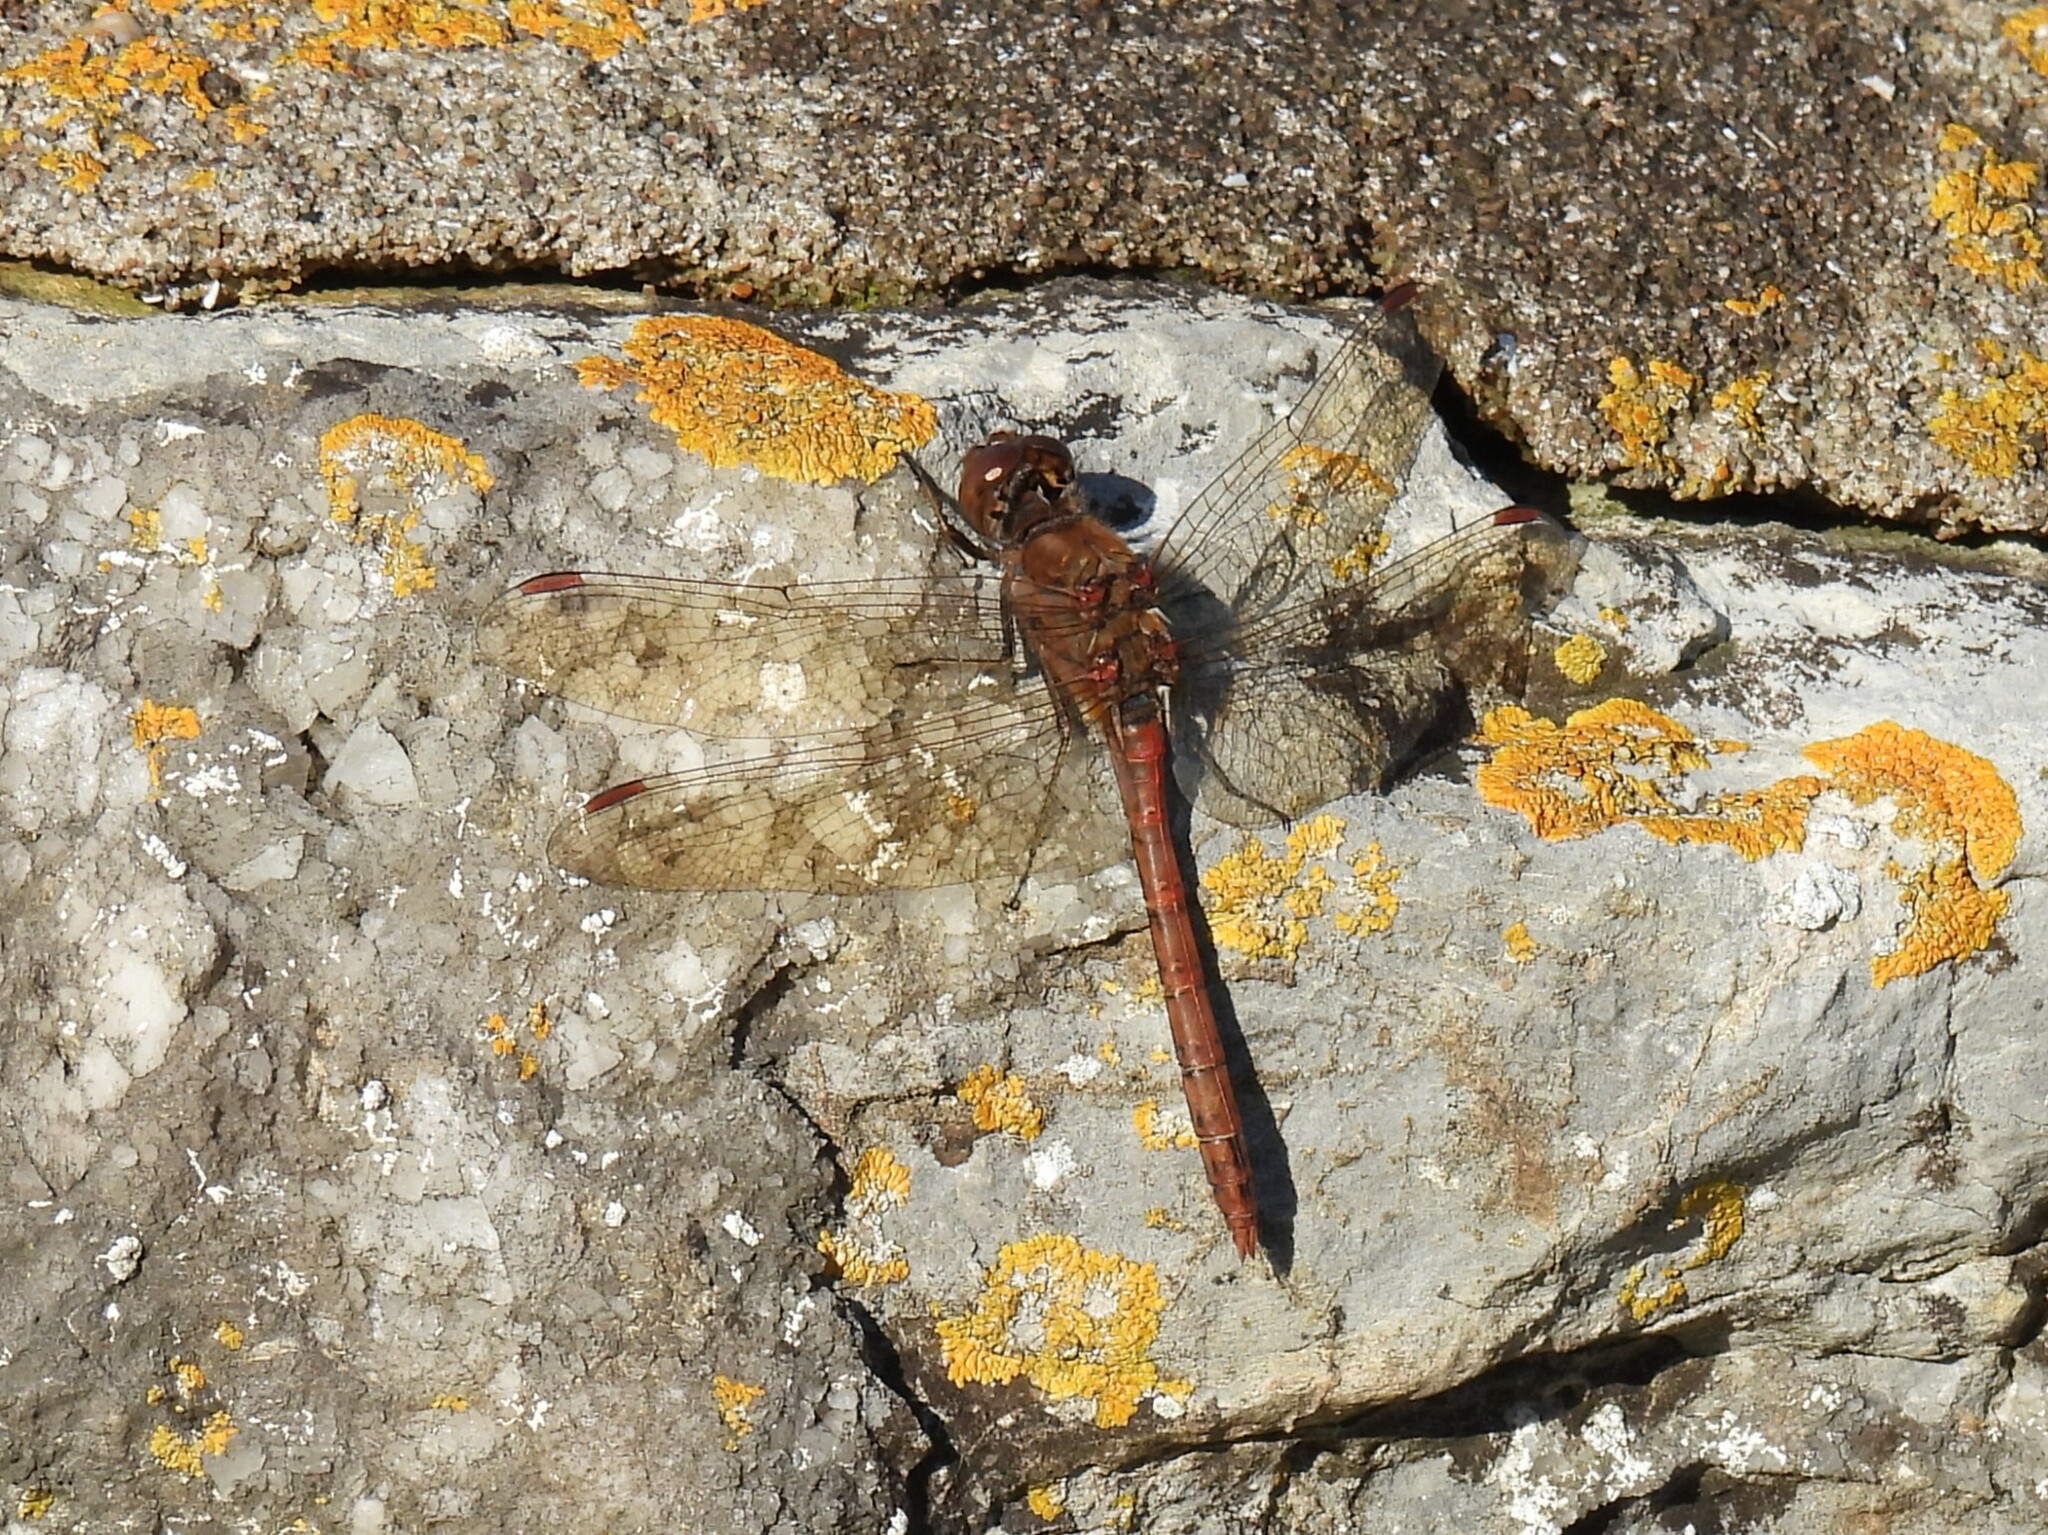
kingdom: Animalia
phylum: Arthropoda
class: Insecta
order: Odonata
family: Libellulidae
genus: Sympetrum
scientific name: Sympetrum striolatum
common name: Common darter
